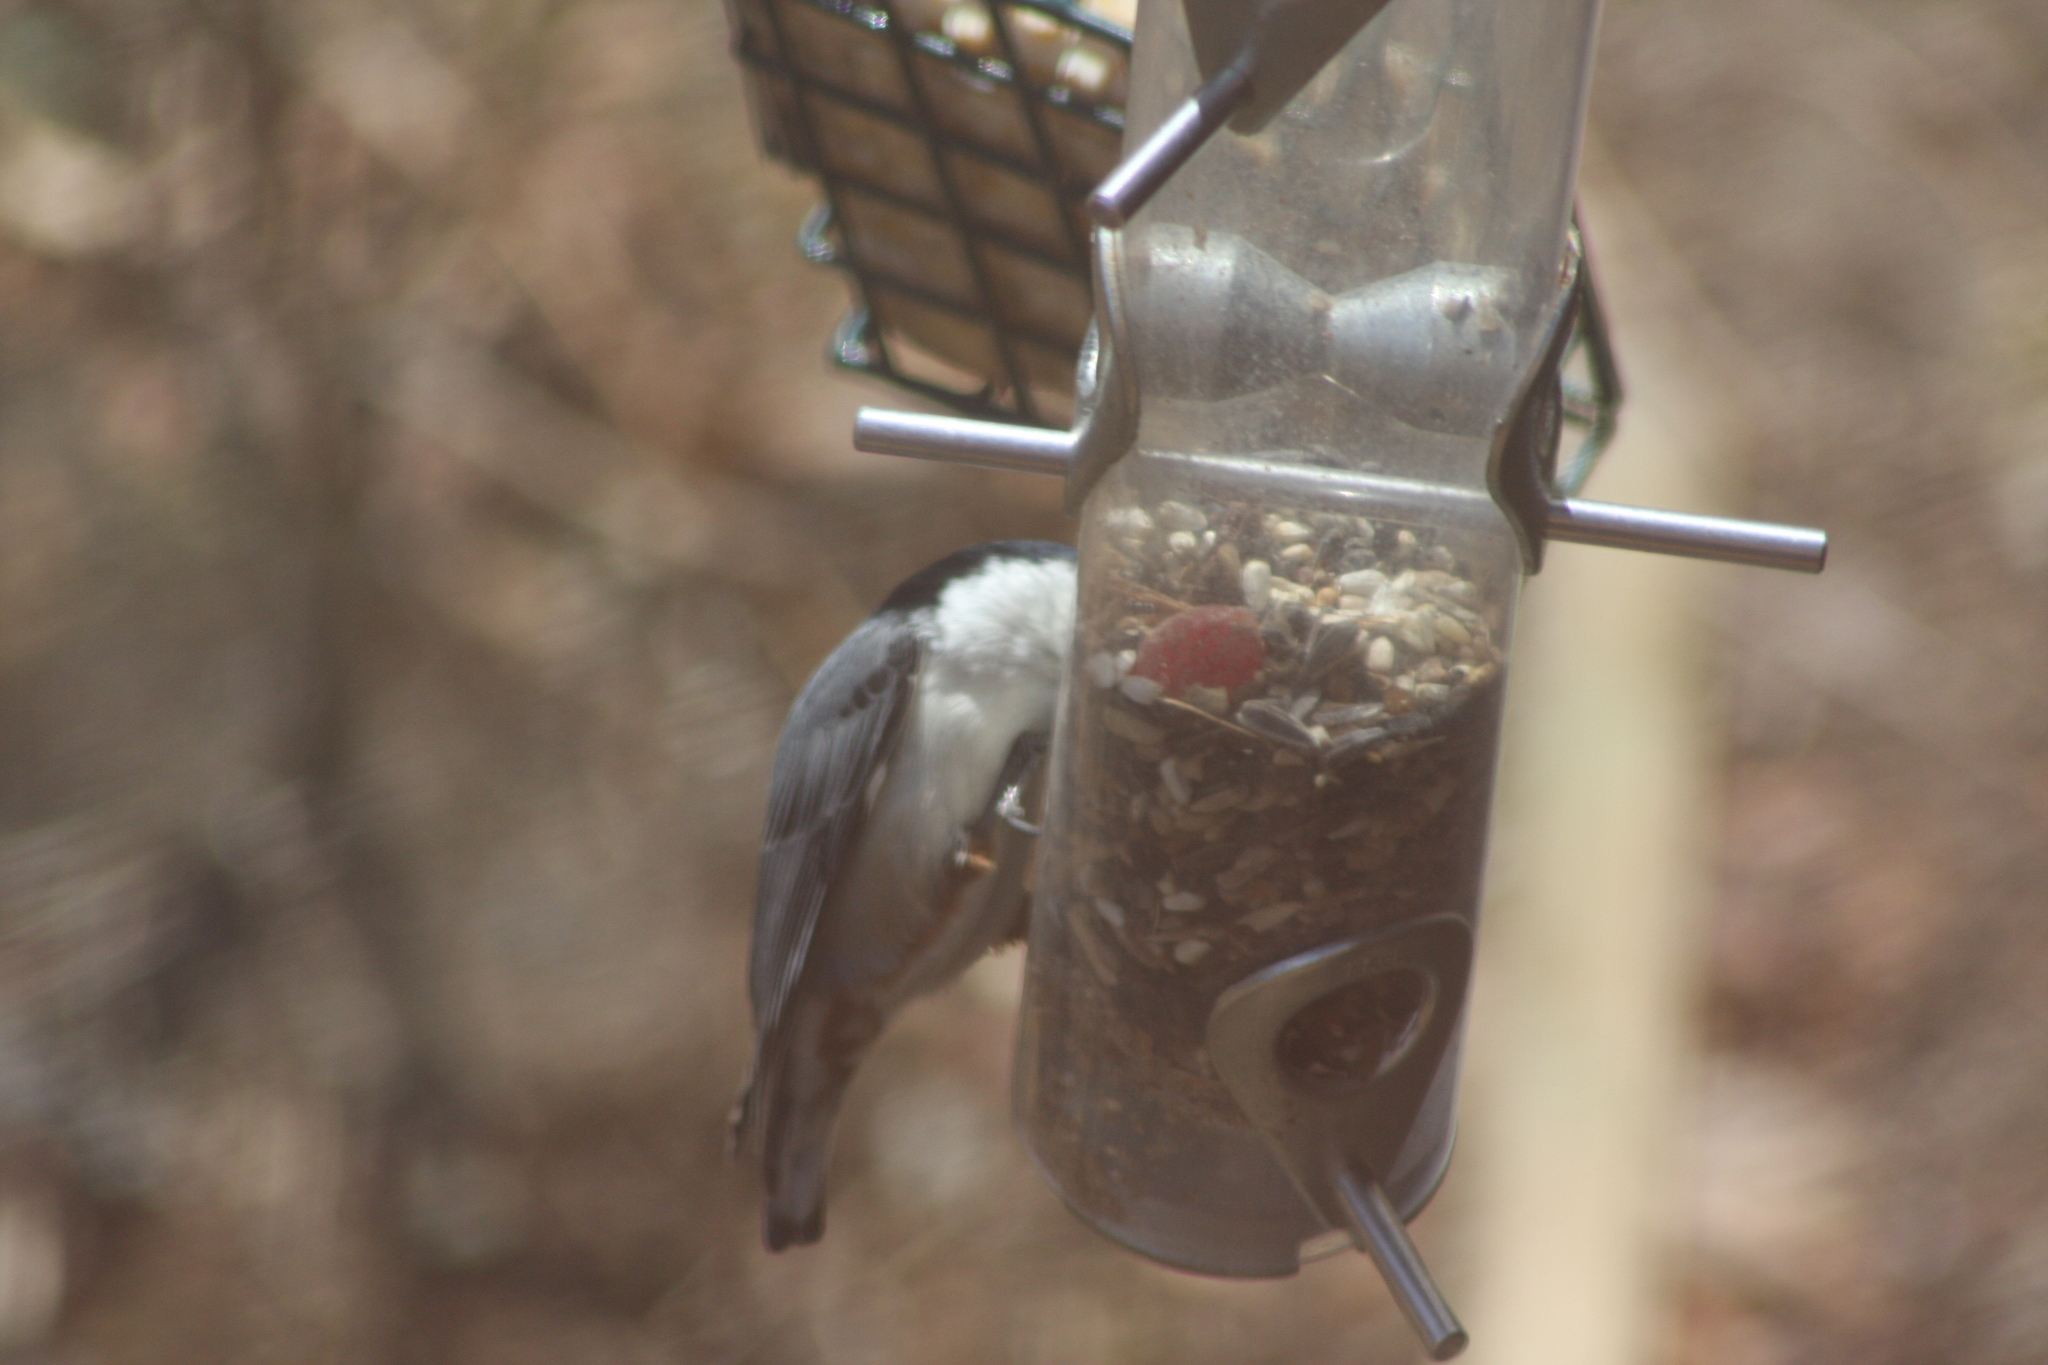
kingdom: Animalia
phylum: Chordata
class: Aves
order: Passeriformes
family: Sittidae
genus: Sitta
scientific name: Sitta carolinensis
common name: White-breasted nuthatch
